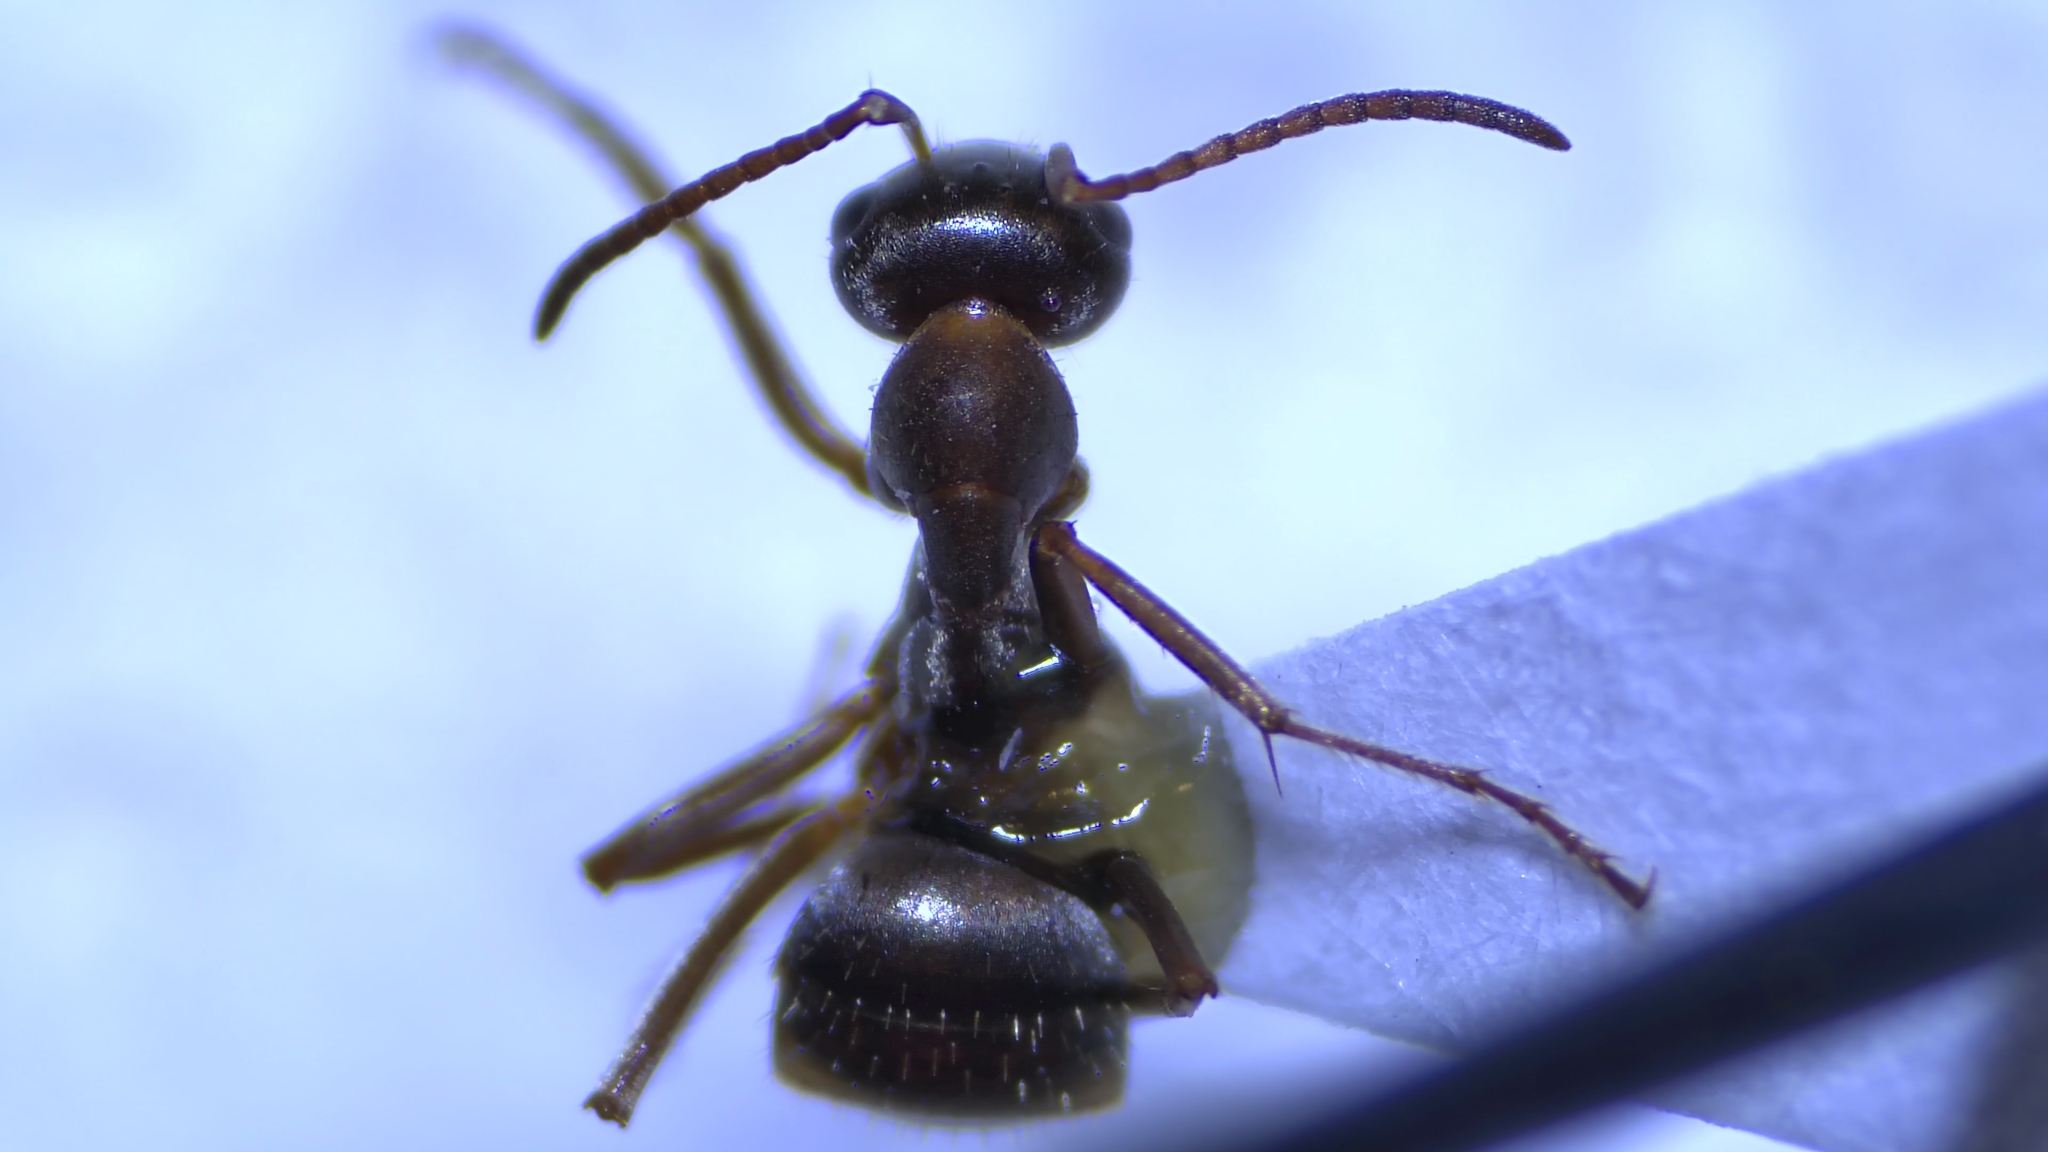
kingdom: Animalia
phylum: Arthropoda
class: Insecta
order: Hymenoptera
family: Formicidae
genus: Formica
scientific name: Formica montana
